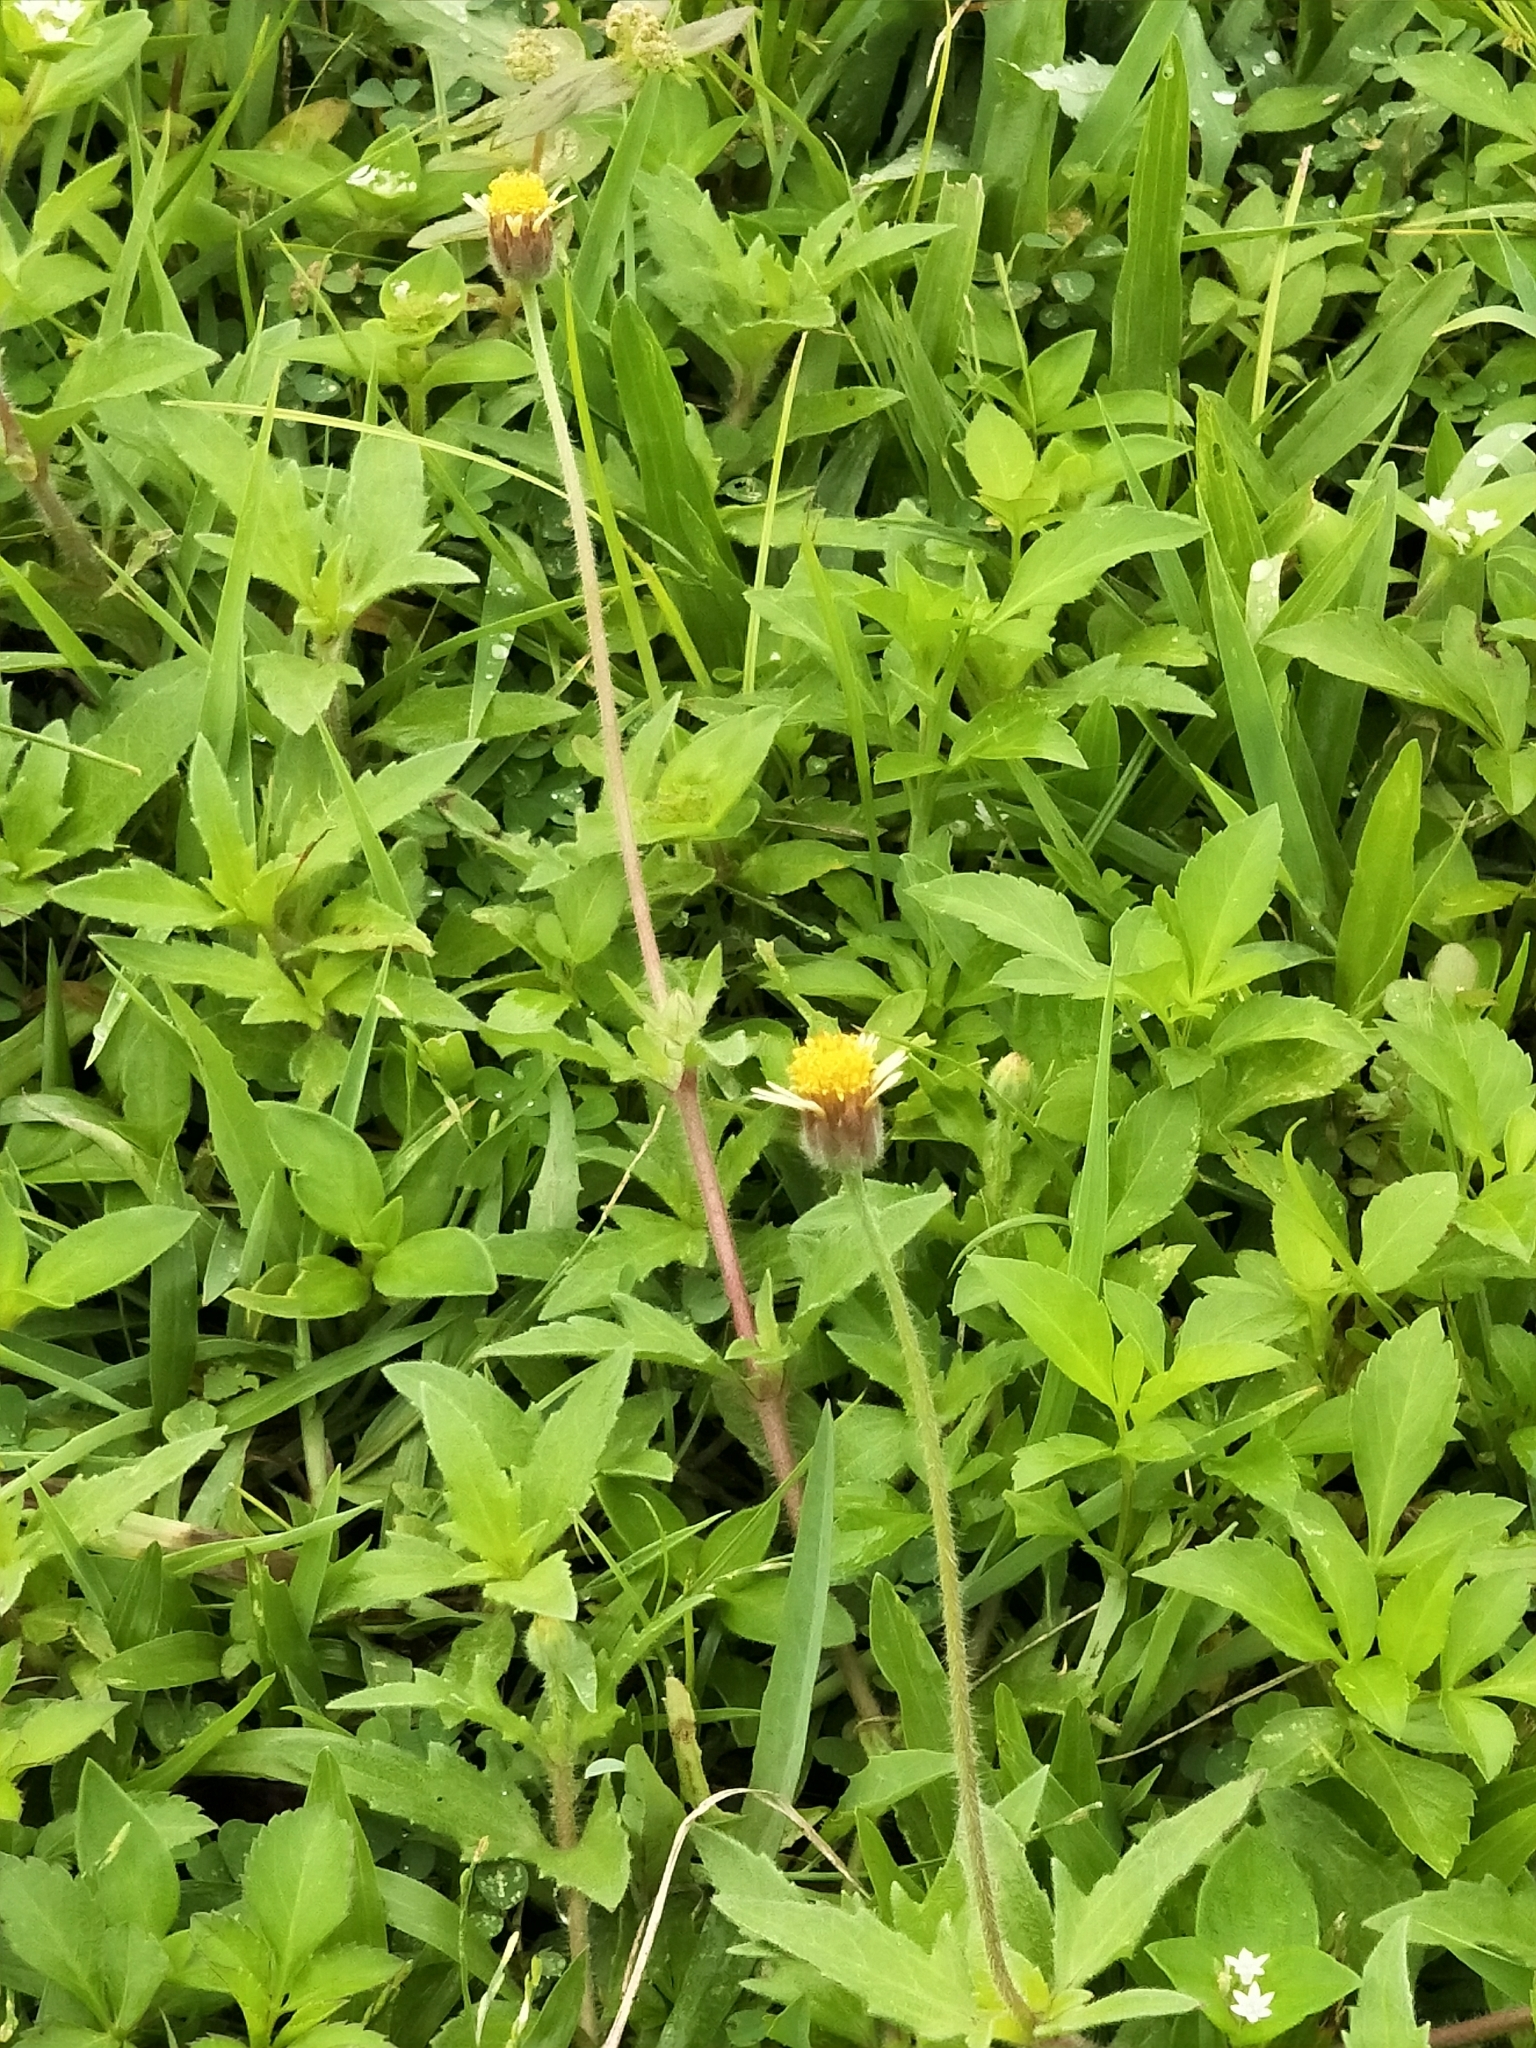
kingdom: Plantae
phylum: Tracheophyta
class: Magnoliopsida
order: Asterales
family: Asteraceae
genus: Tridax
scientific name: Tridax procumbens
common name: Coatbuttons
